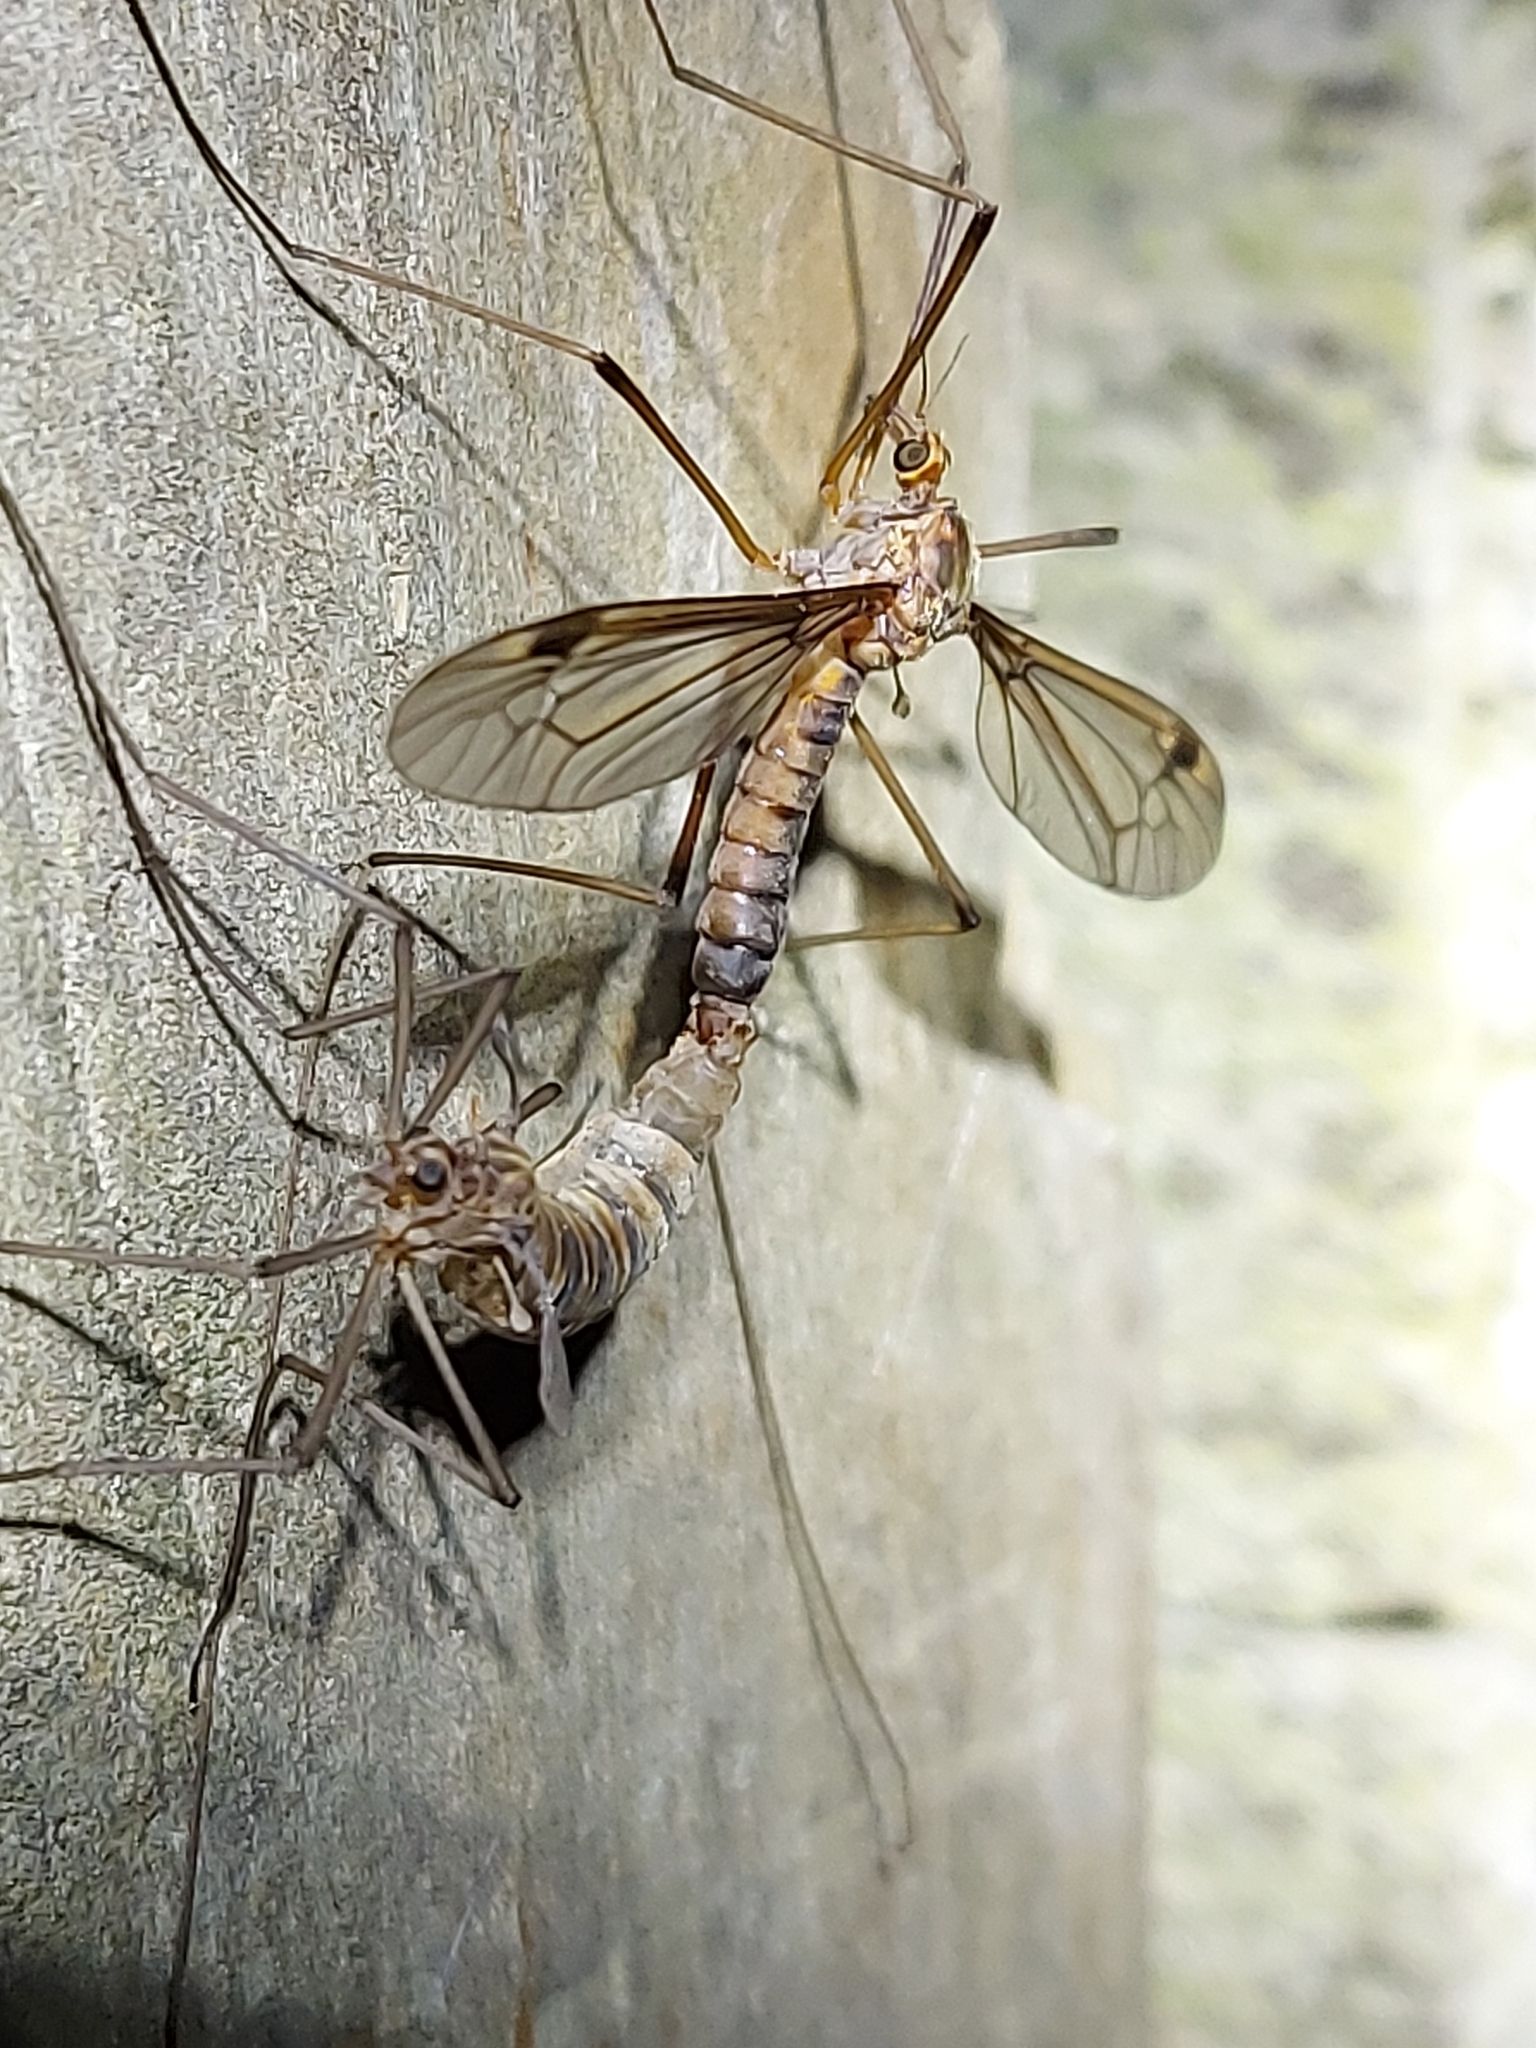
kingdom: Animalia
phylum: Arthropoda
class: Insecta
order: Diptera
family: Tipulidae
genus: Leptotarsus
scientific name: Leptotarsus zeylandiae
